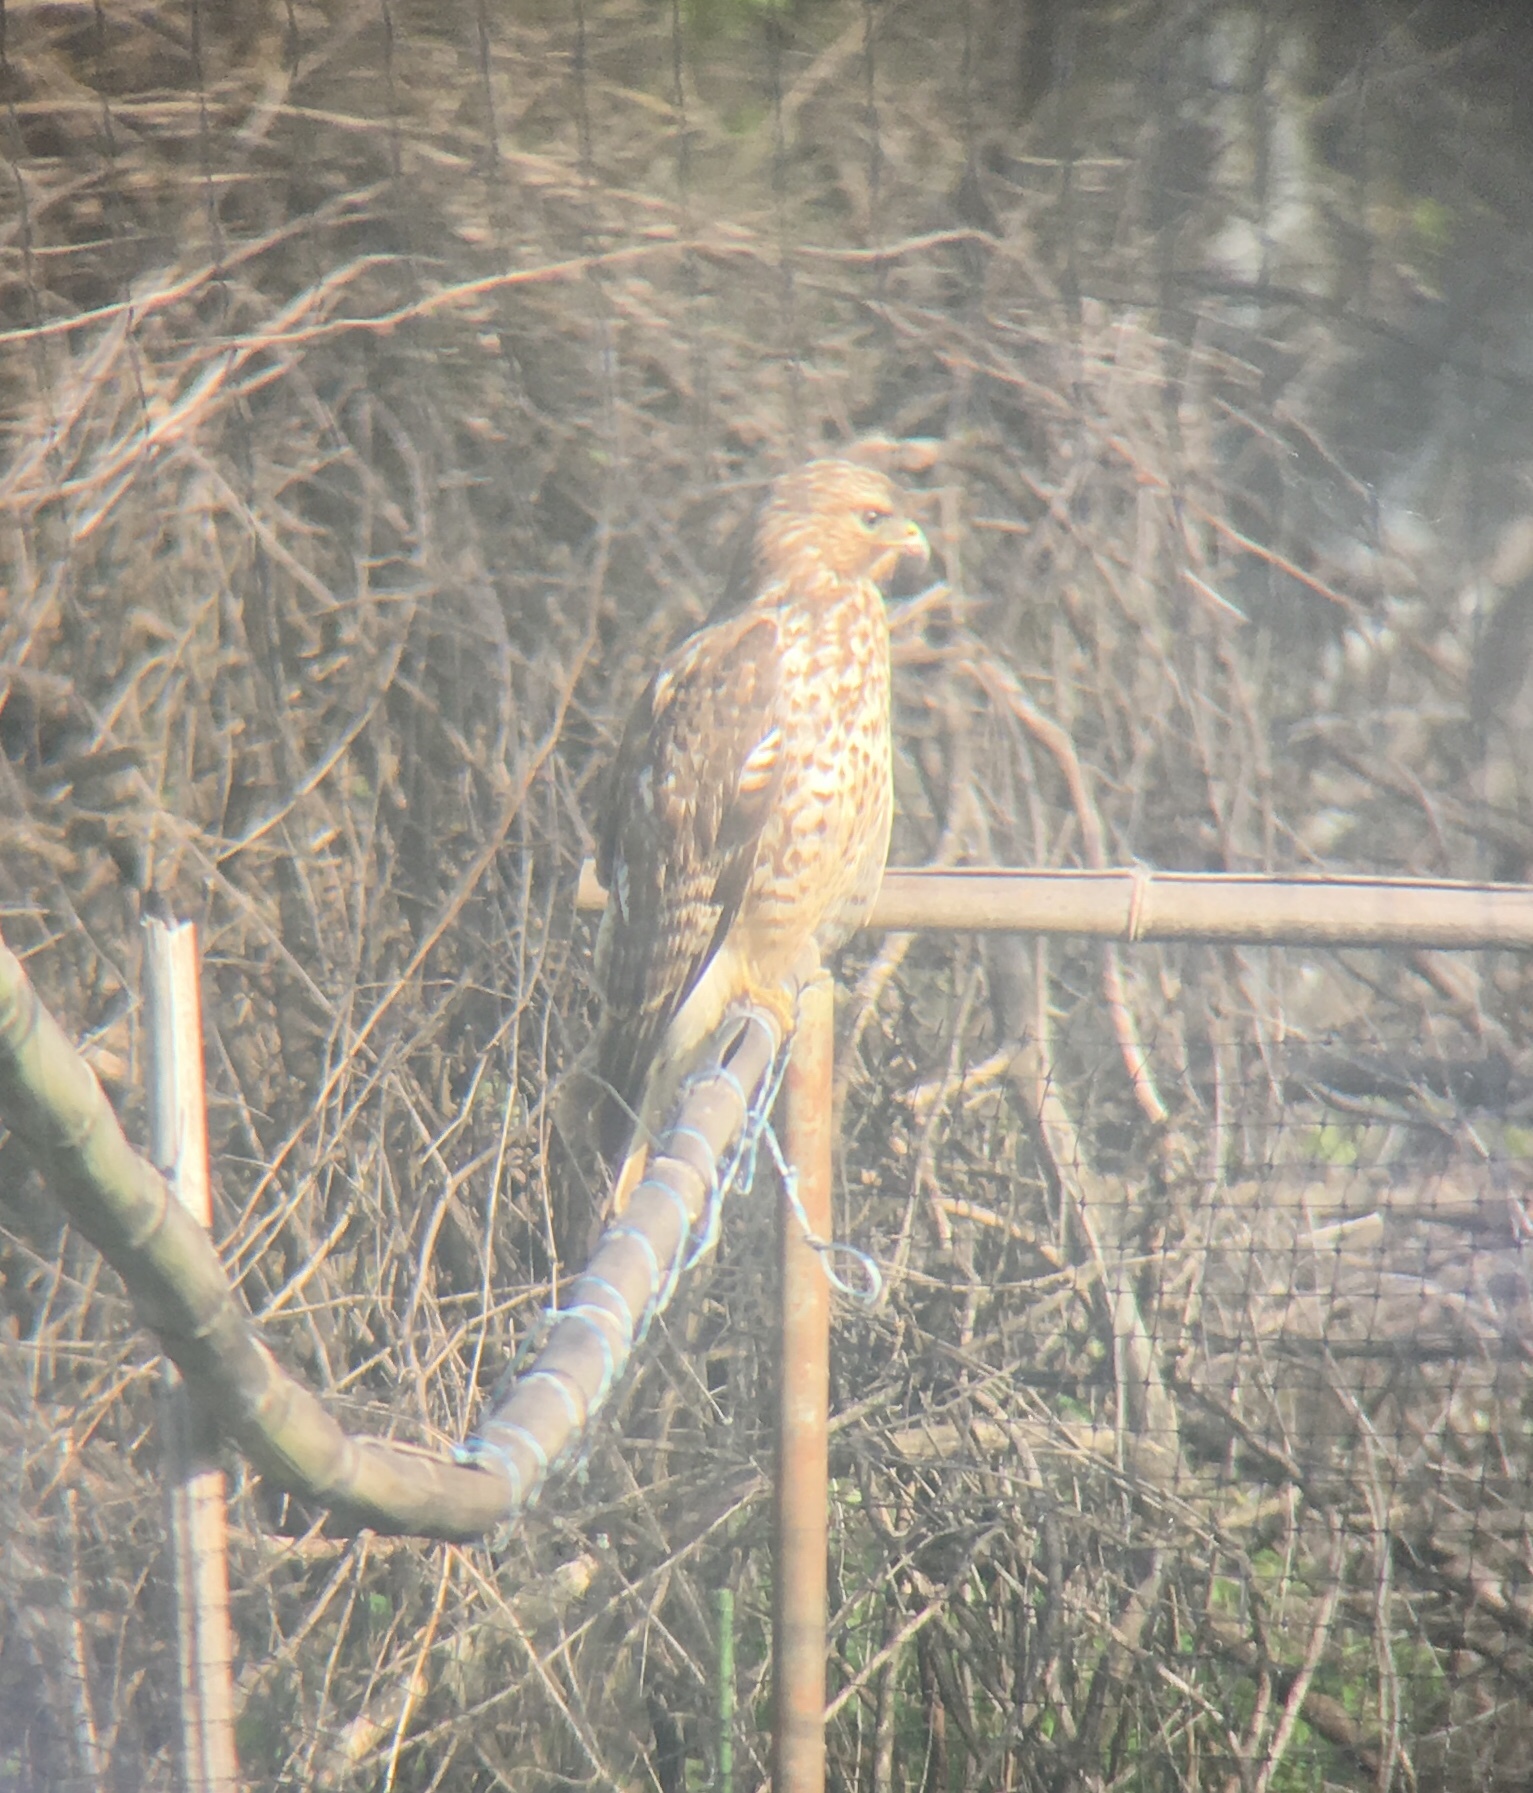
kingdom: Animalia
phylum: Chordata
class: Aves
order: Accipitriformes
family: Accipitridae
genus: Buteo
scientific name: Buteo jamaicensis
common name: Red-tailed hawk
